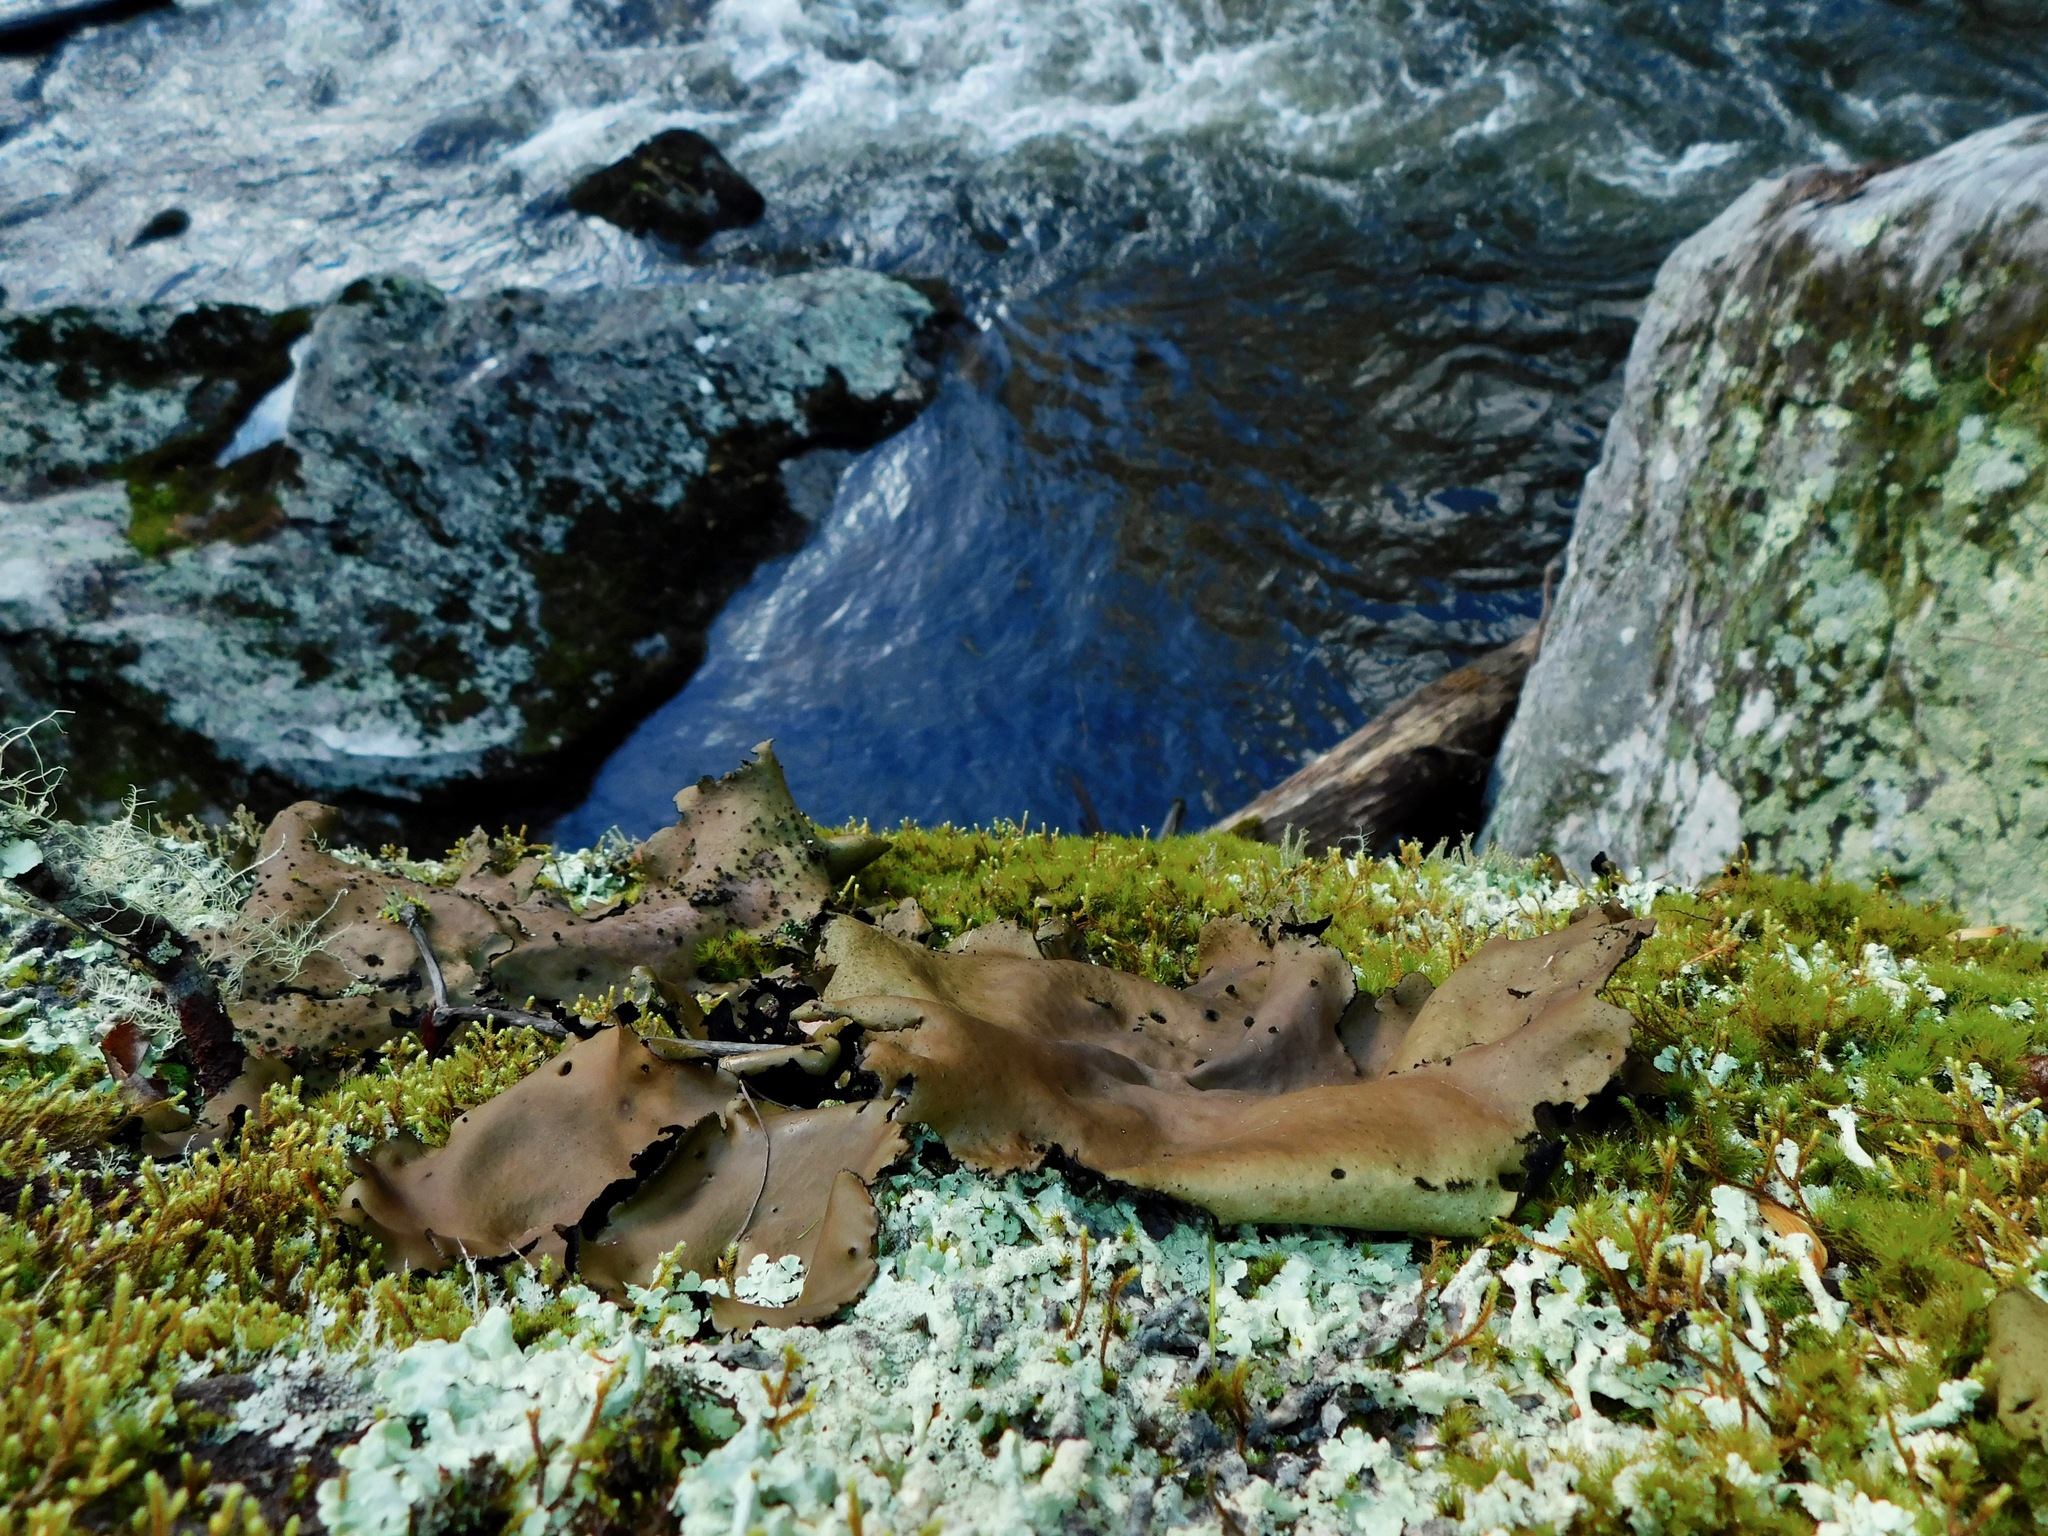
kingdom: Fungi
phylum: Ascomycota
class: Lecanoromycetes
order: Umbilicariales
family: Umbilicariaceae
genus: Umbilicaria
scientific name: Umbilicaria mammulata
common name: Smooth rock tripe
